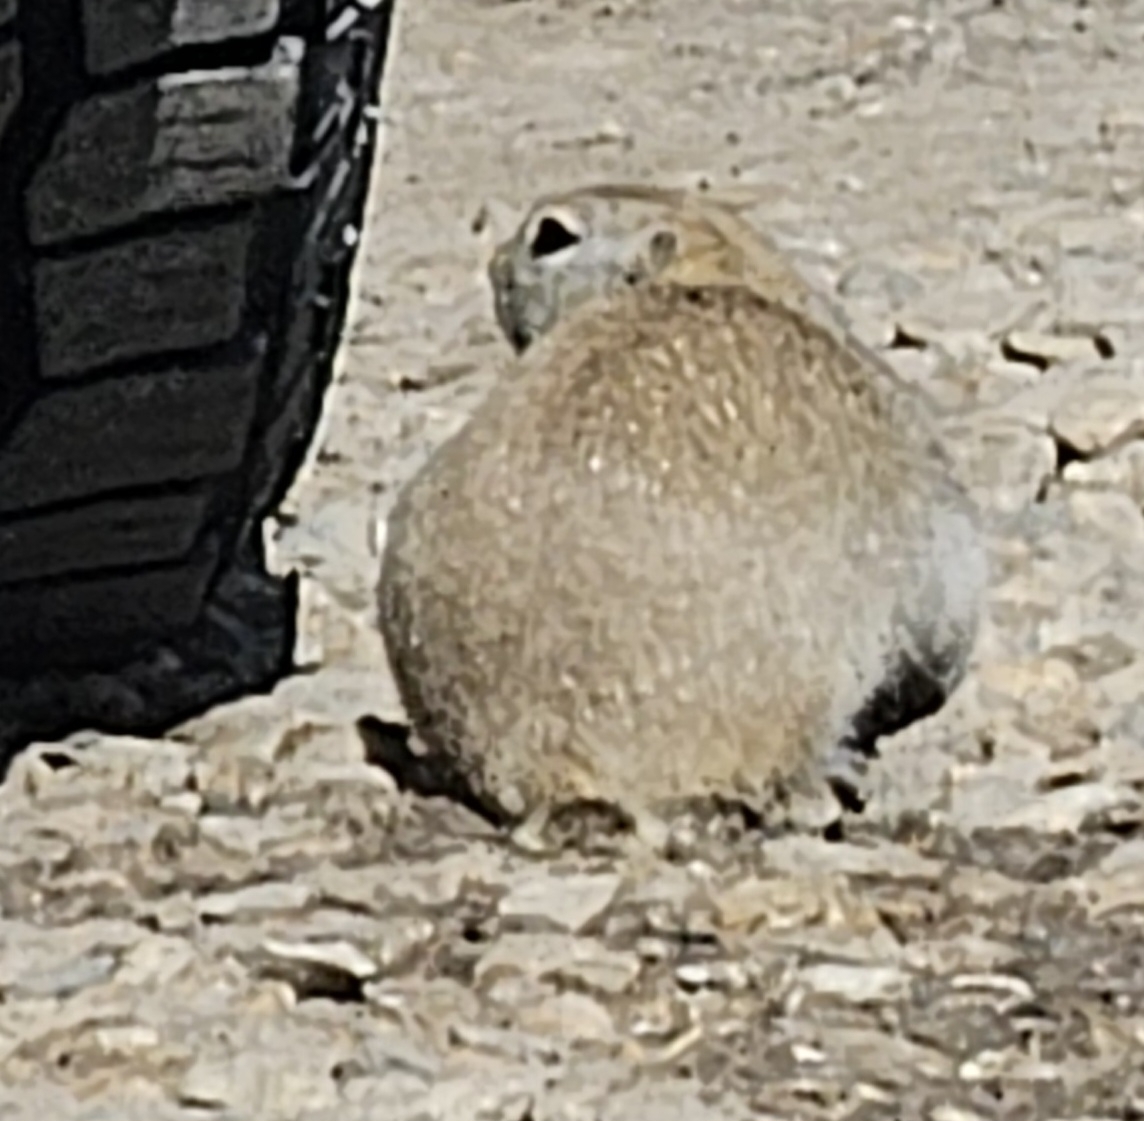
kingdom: Animalia
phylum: Chordata
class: Mammalia
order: Rodentia
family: Sciuridae
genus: Urocitellus
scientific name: Urocitellus richardsonii
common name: Richardson's ground squirrel
